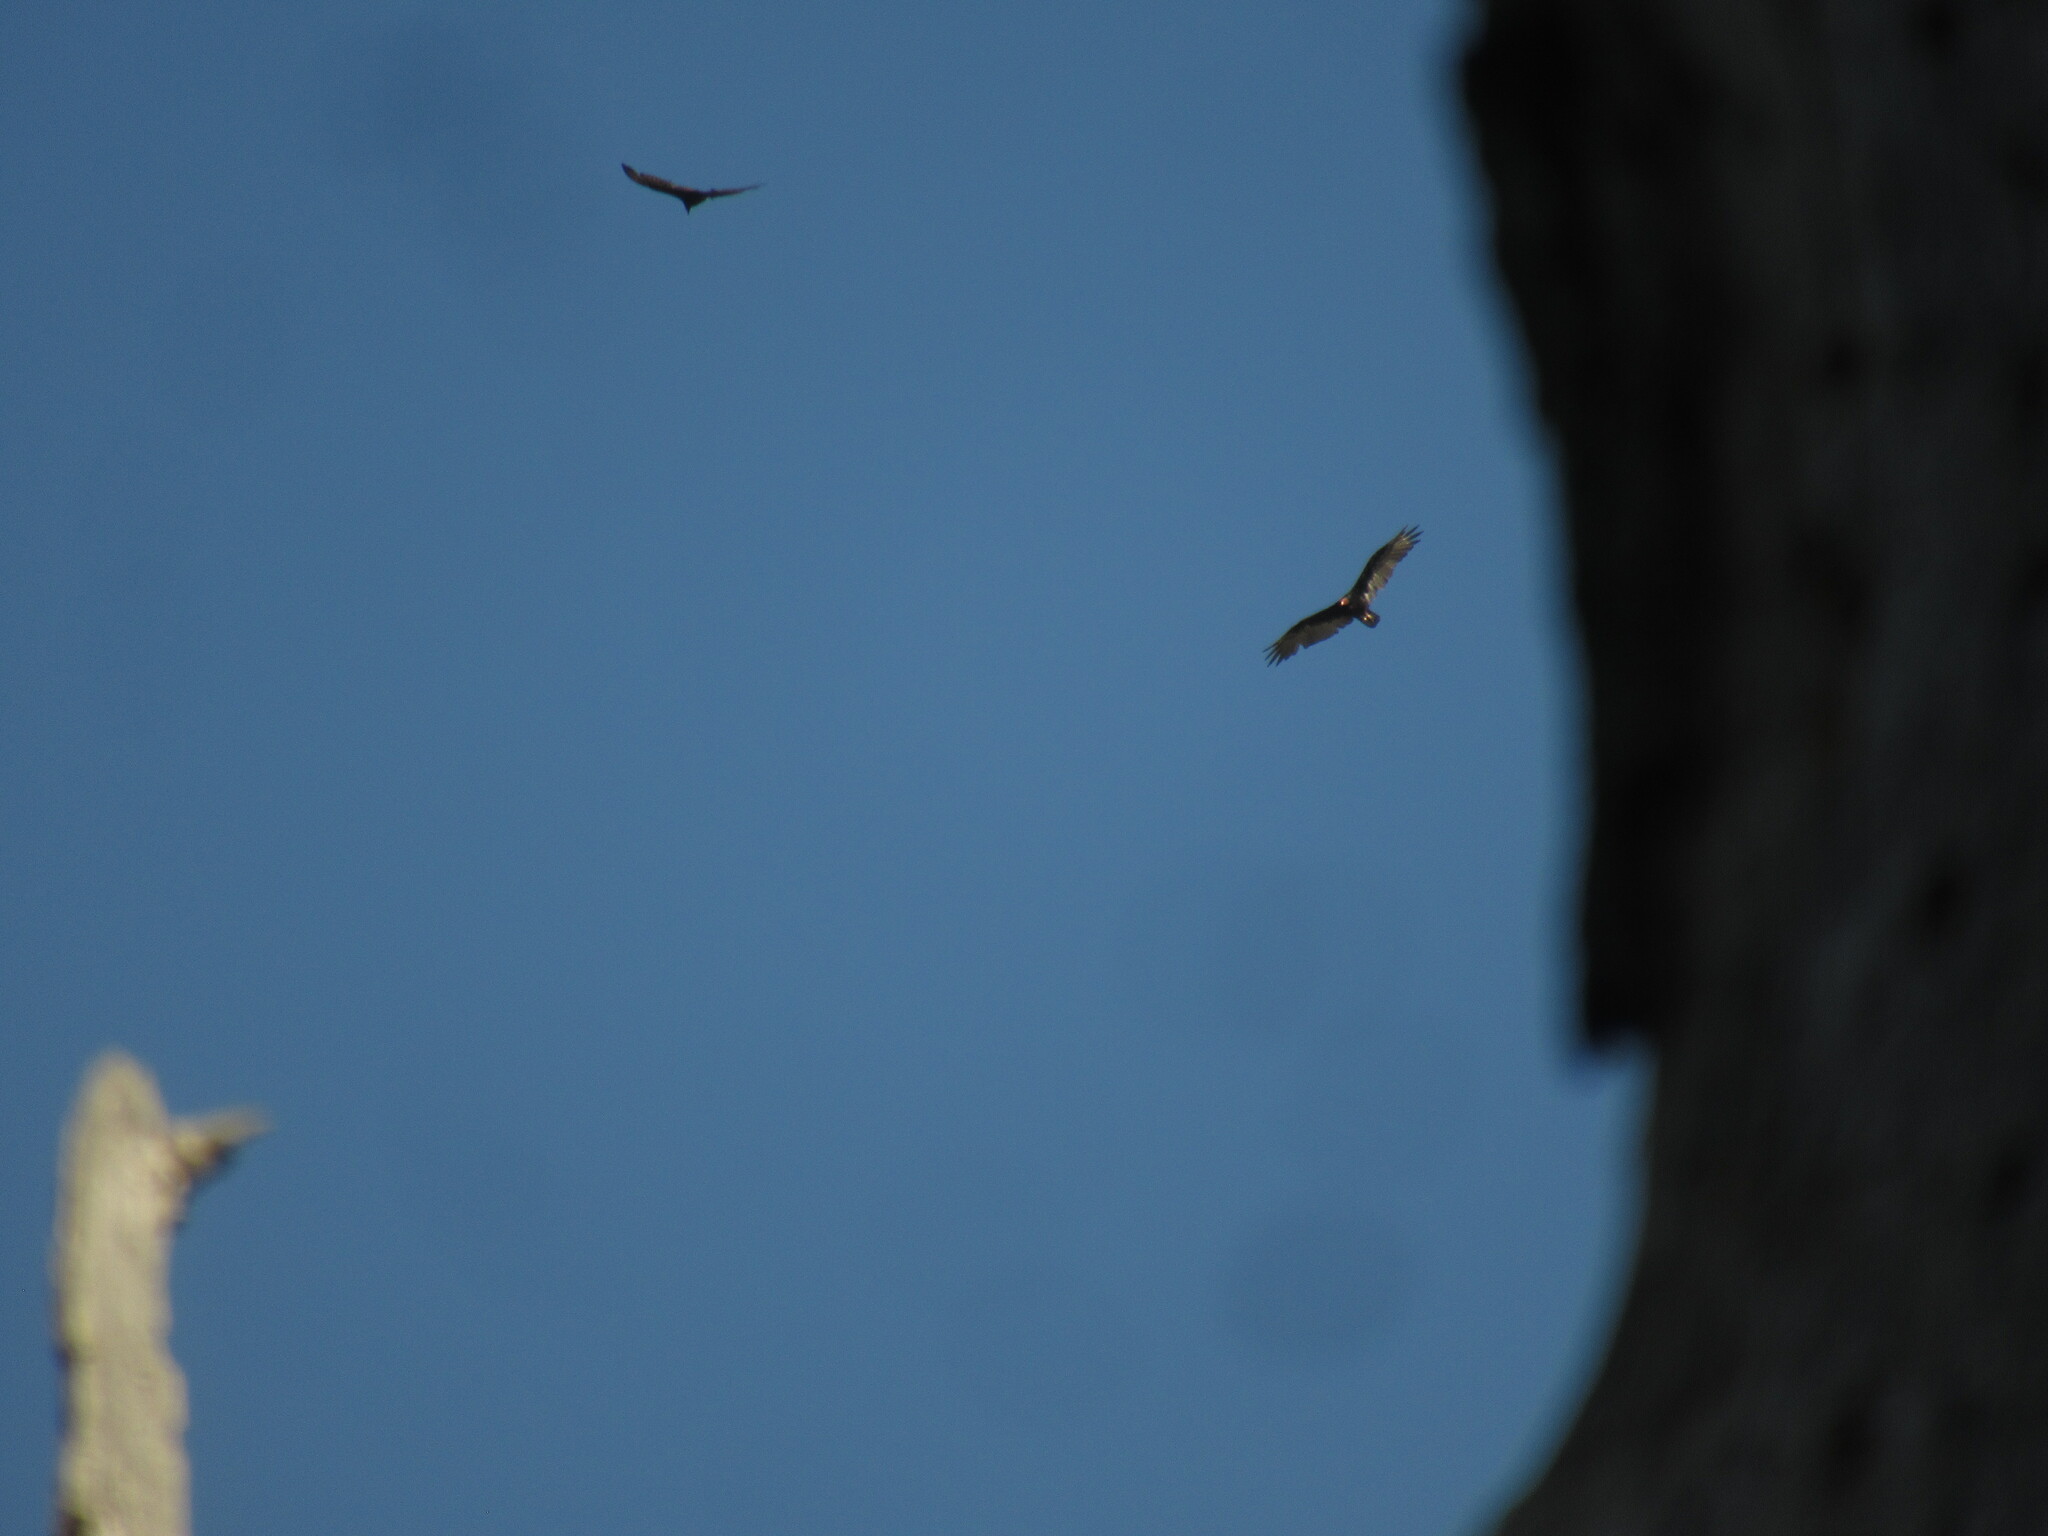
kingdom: Animalia
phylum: Chordata
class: Aves
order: Accipitriformes
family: Cathartidae
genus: Cathartes
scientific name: Cathartes aura
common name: Turkey vulture
